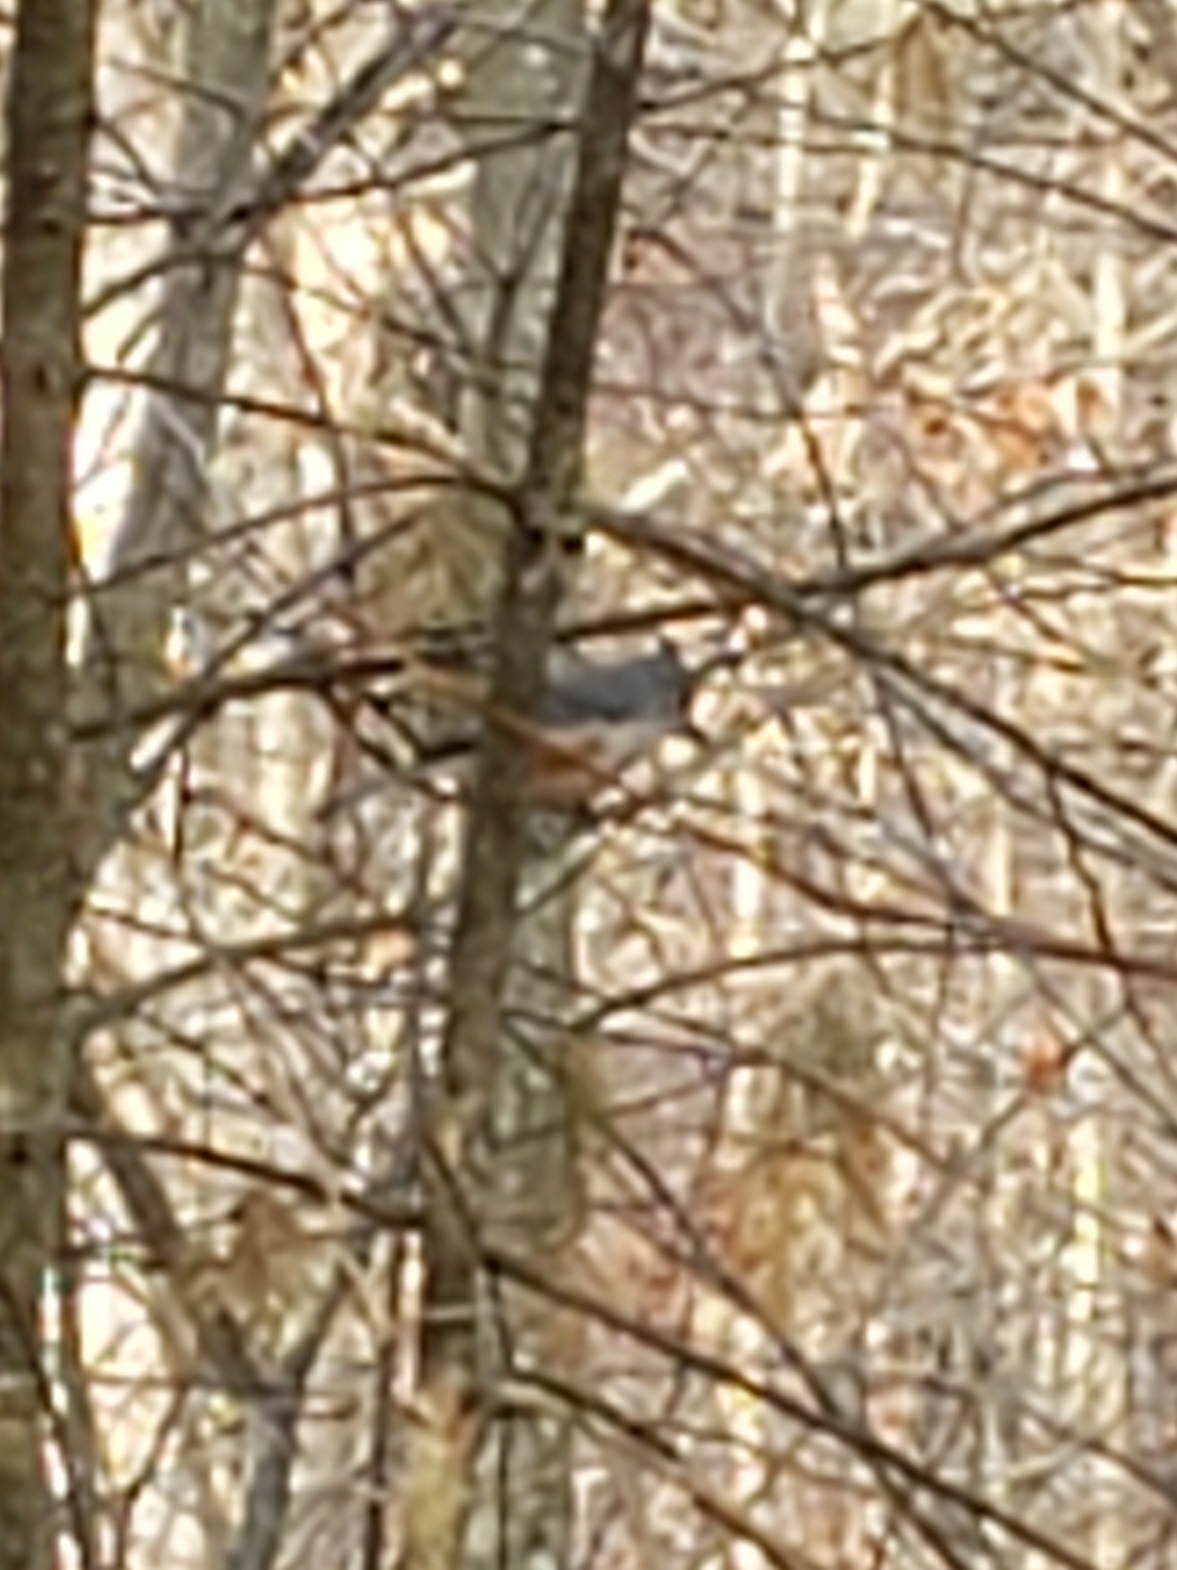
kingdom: Animalia
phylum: Chordata
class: Aves
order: Passeriformes
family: Paridae
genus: Baeolophus
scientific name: Baeolophus bicolor
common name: Tufted titmouse
